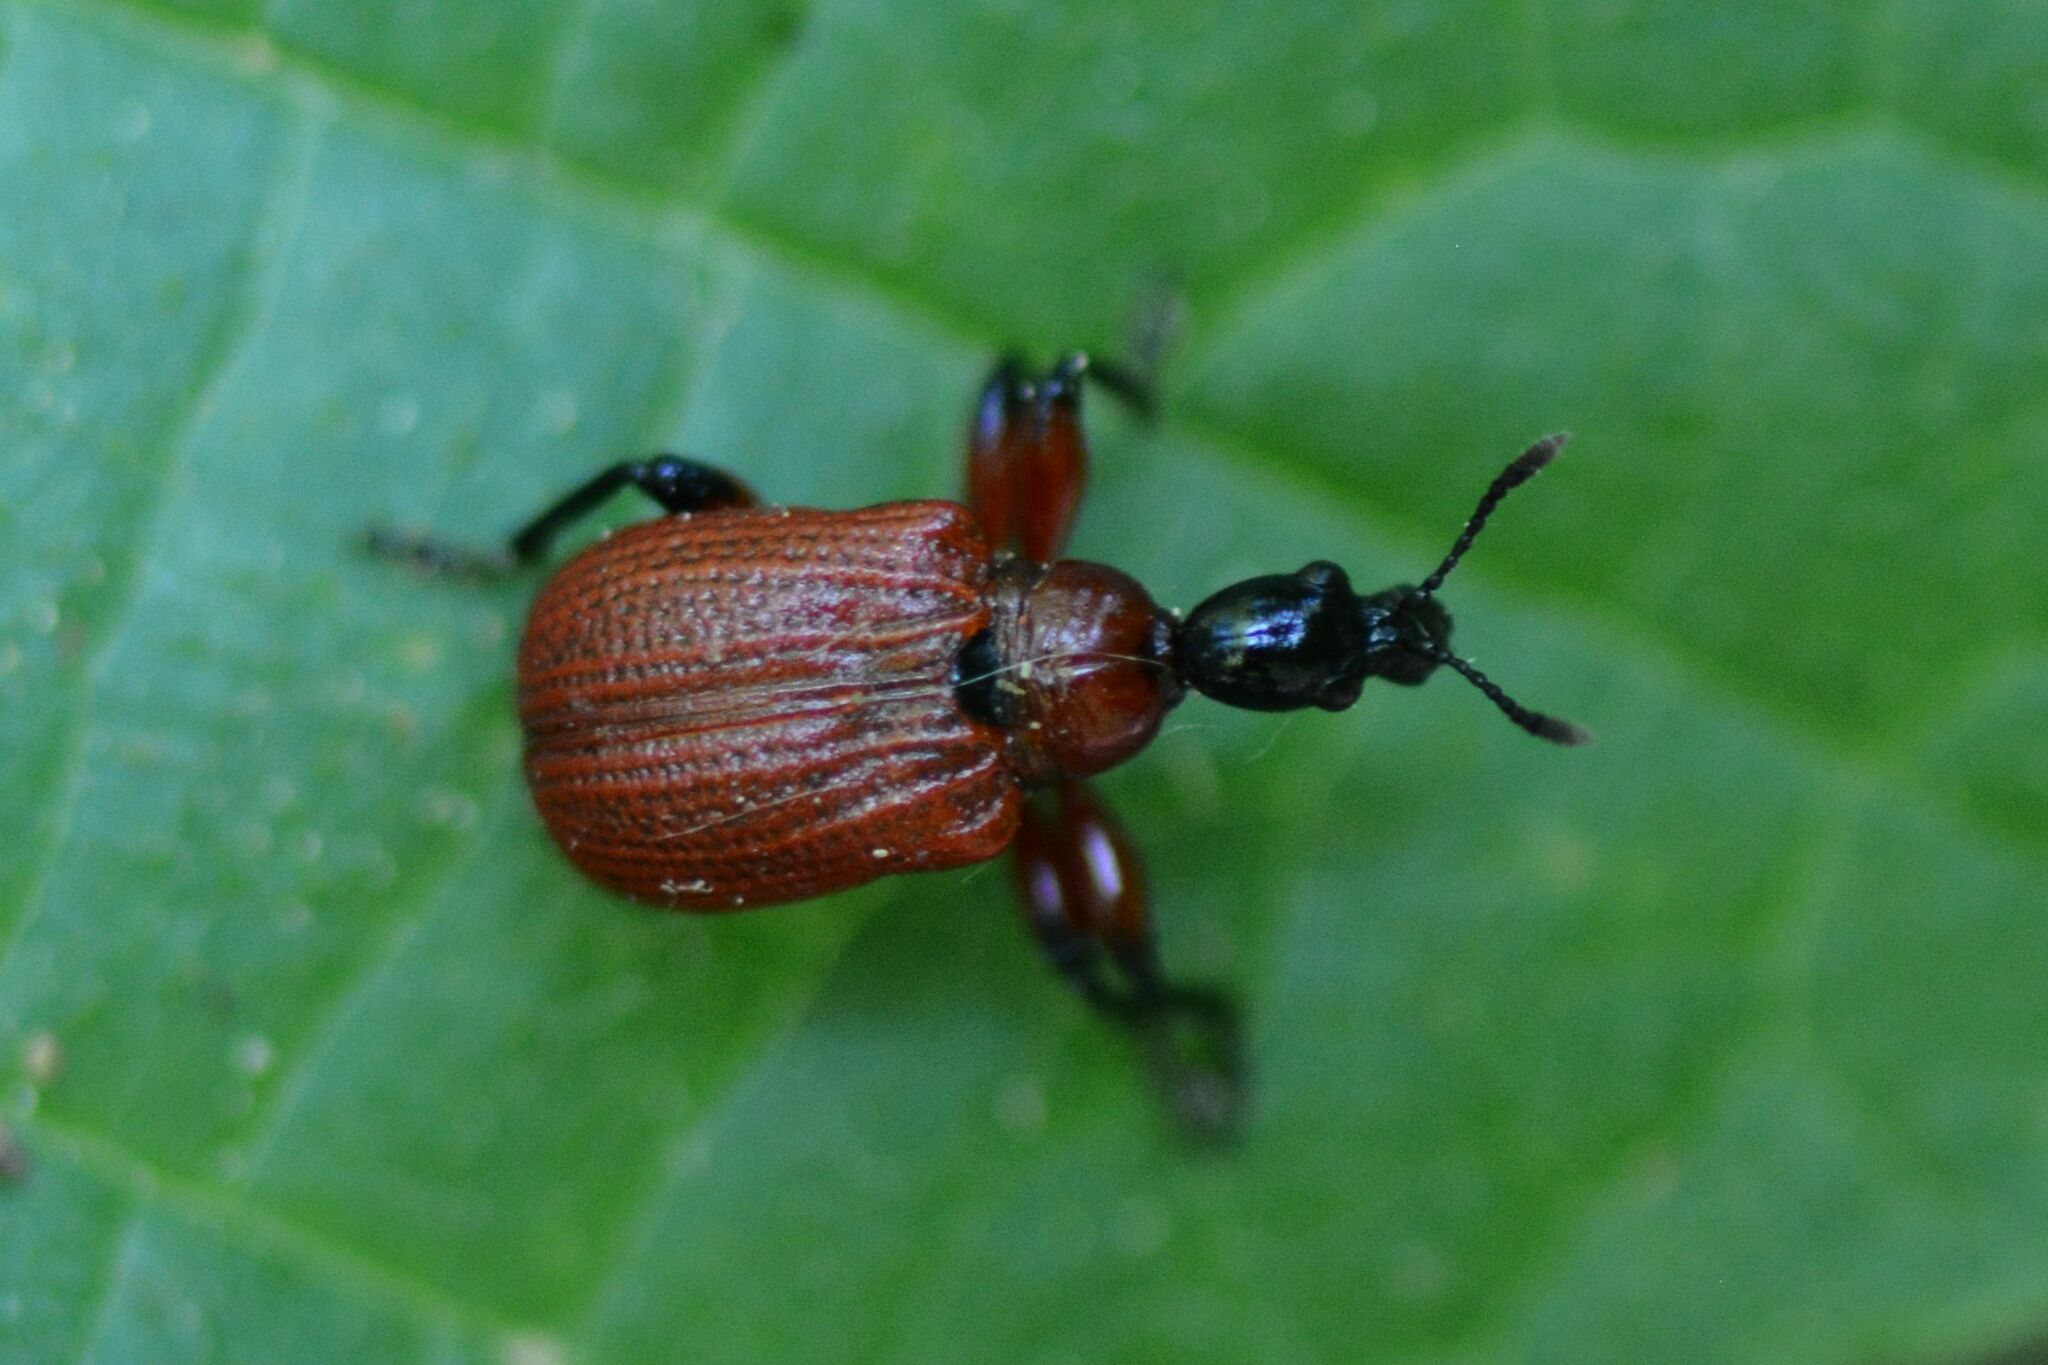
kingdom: Animalia
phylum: Arthropoda
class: Insecta
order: Coleoptera
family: Attelabidae
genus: Apoderus
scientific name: Apoderus coryli
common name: Hazel leaf roller
